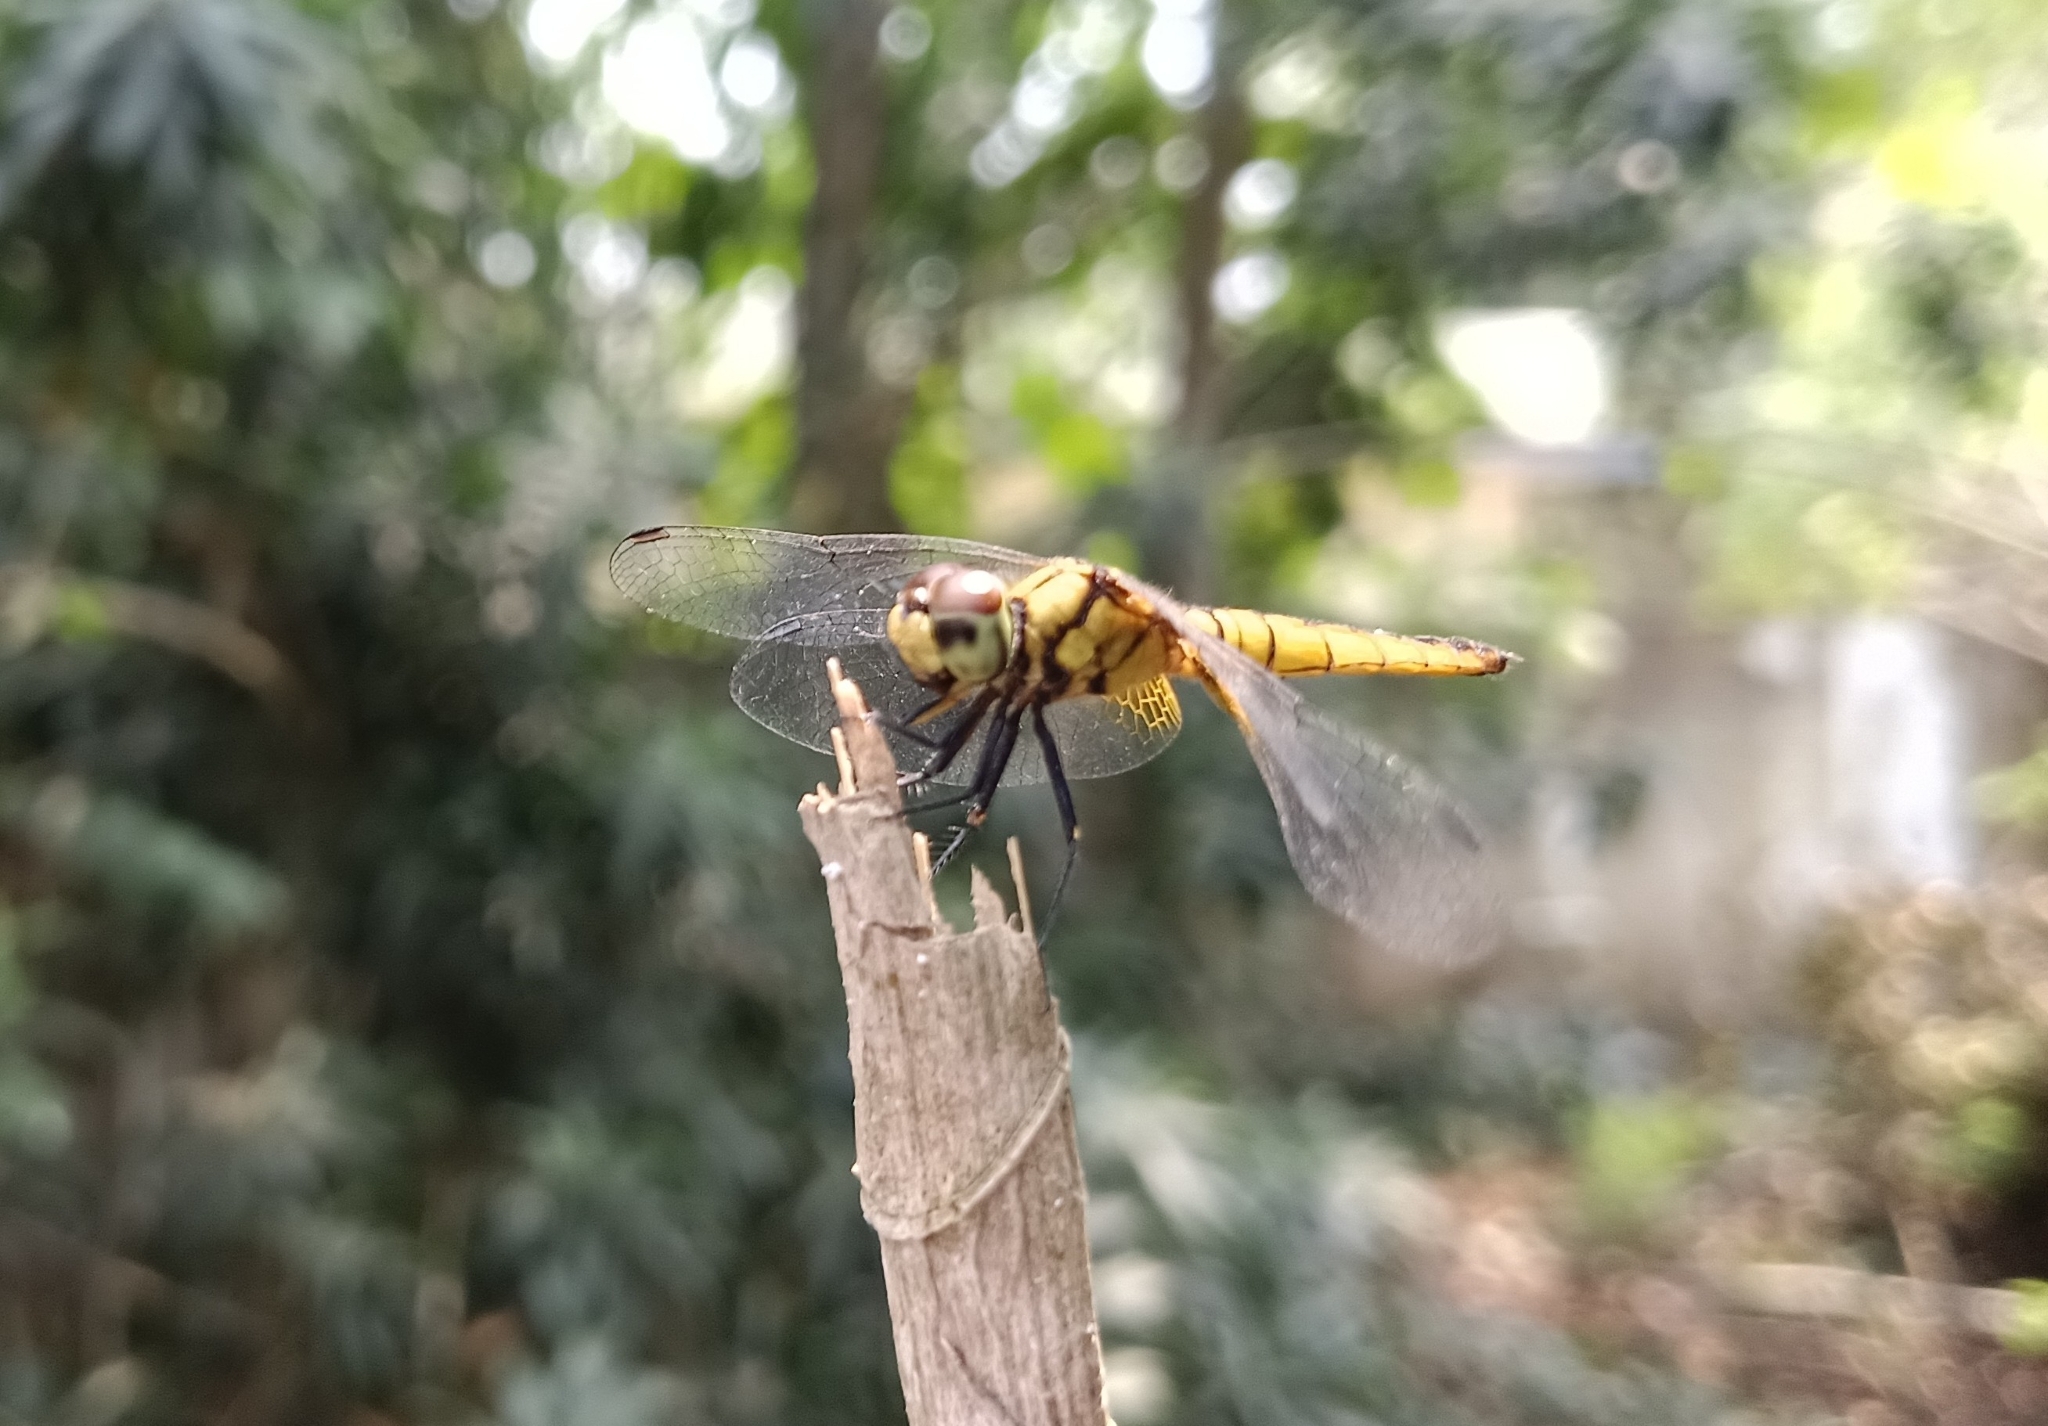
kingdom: Animalia
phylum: Arthropoda
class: Insecta
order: Odonata
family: Libellulidae
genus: Aethriamanta
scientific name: Aethriamanta brevipennis
